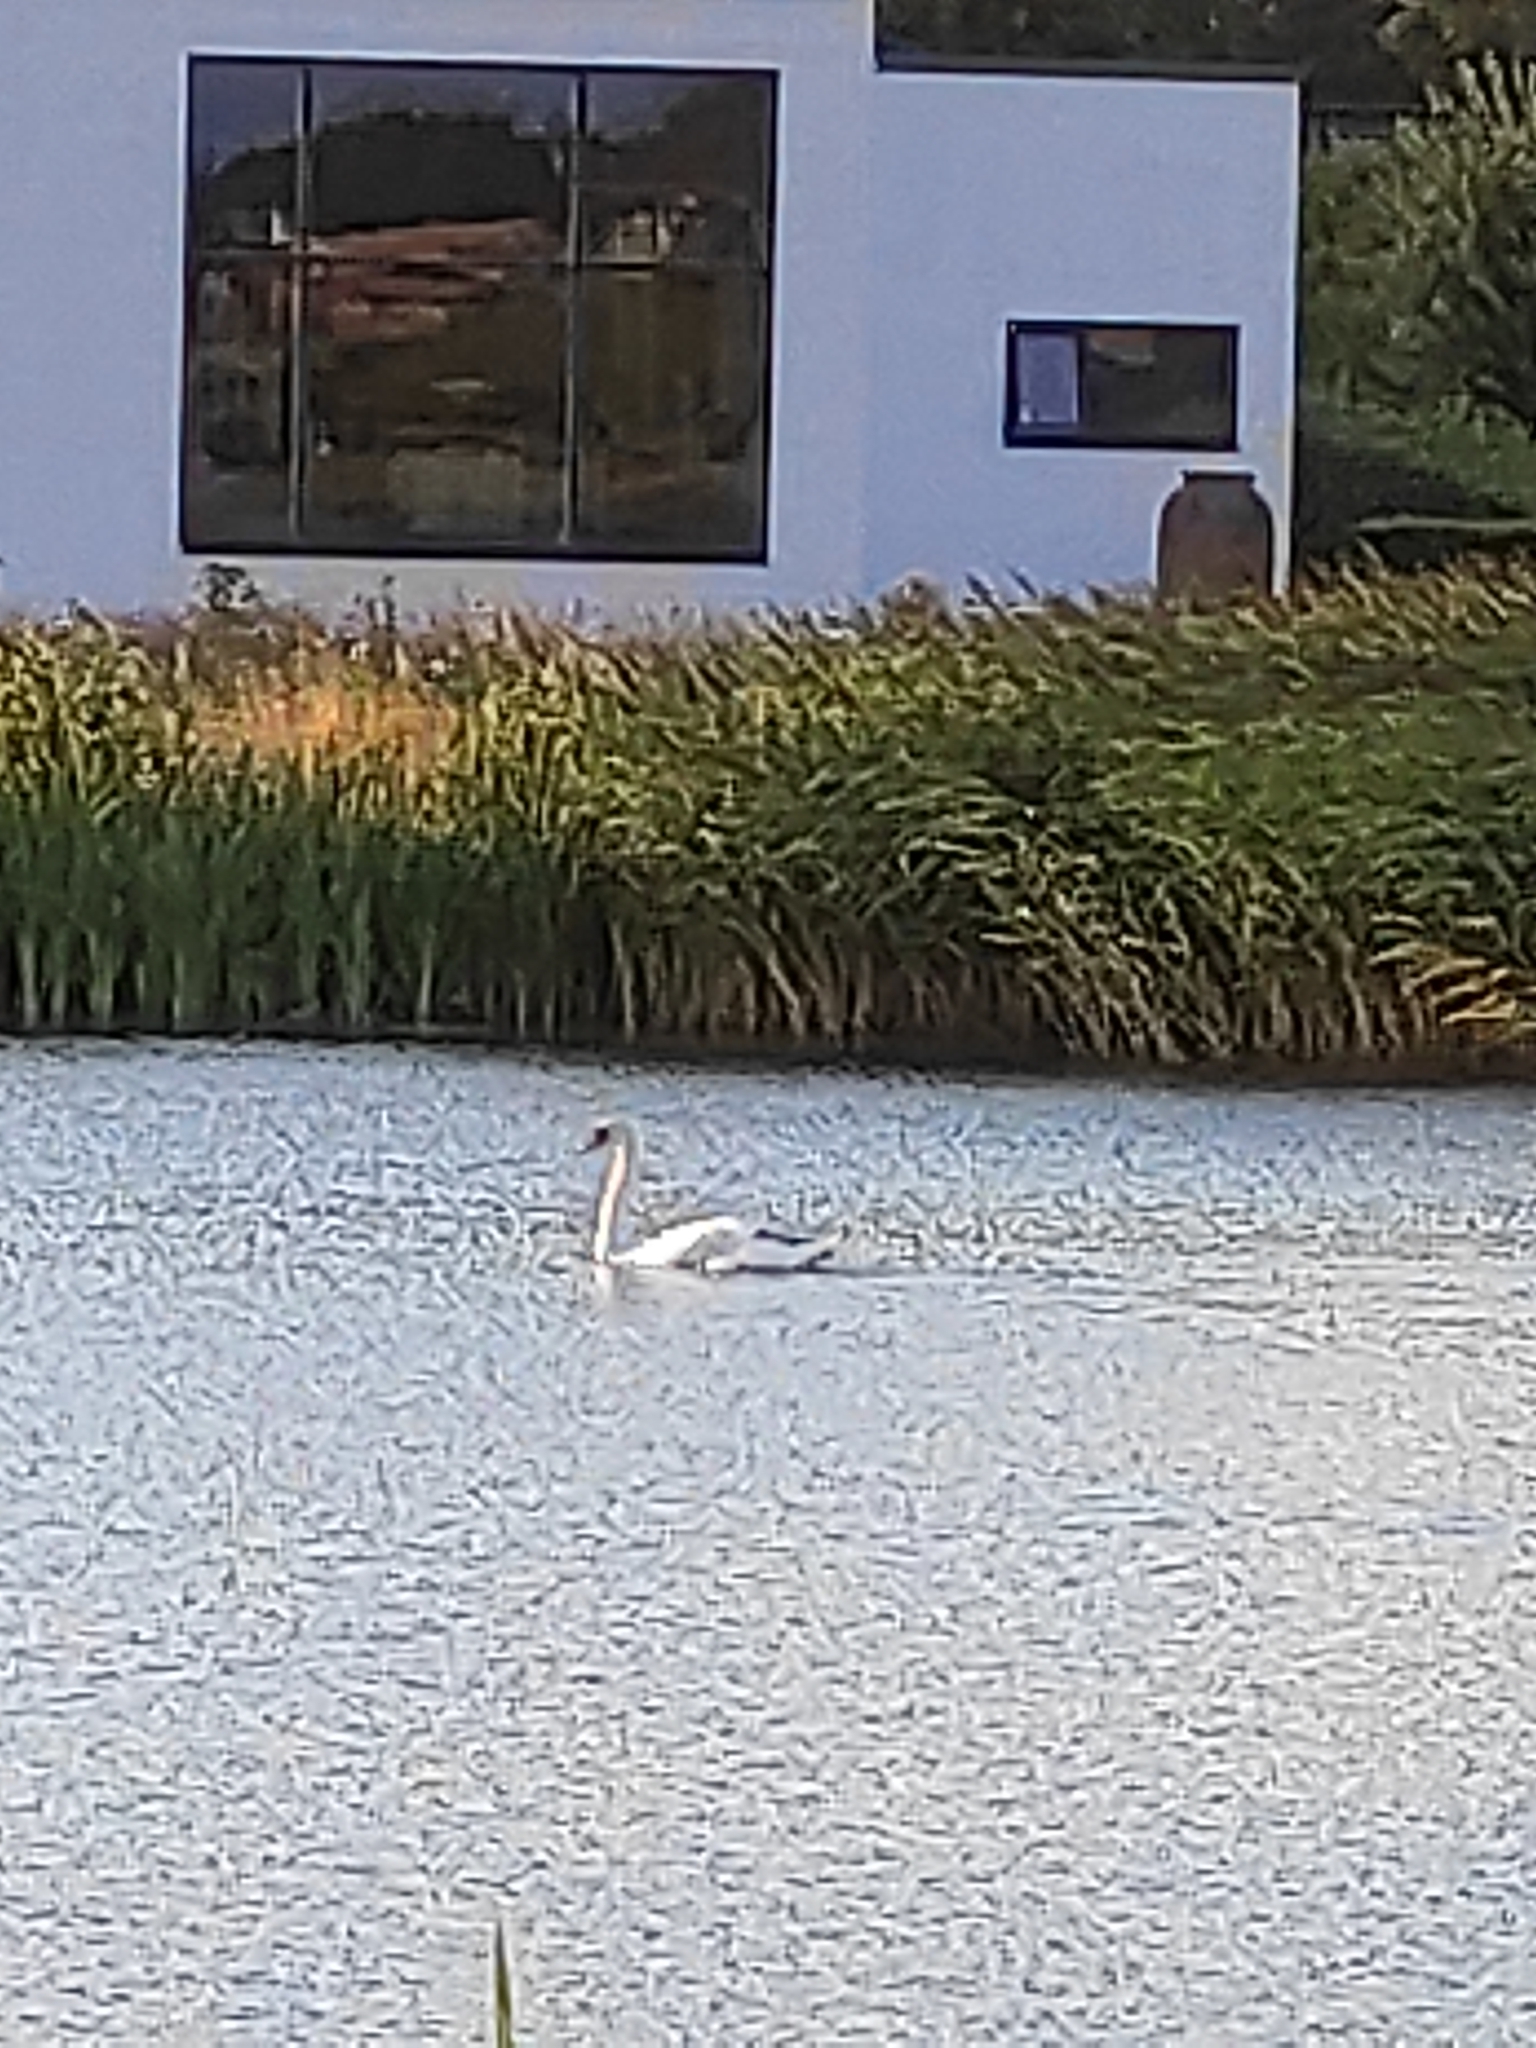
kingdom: Animalia
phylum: Chordata
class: Aves
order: Anseriformes
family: Anatidae
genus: Cygnus
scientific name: Cygnus olor
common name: Mute swan
